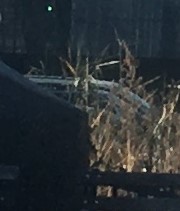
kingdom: Plantae
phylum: Tracheophyta
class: Liliopsida
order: Poales
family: Poaceae
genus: Phragmites
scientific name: Phragmites australis
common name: Common reed
